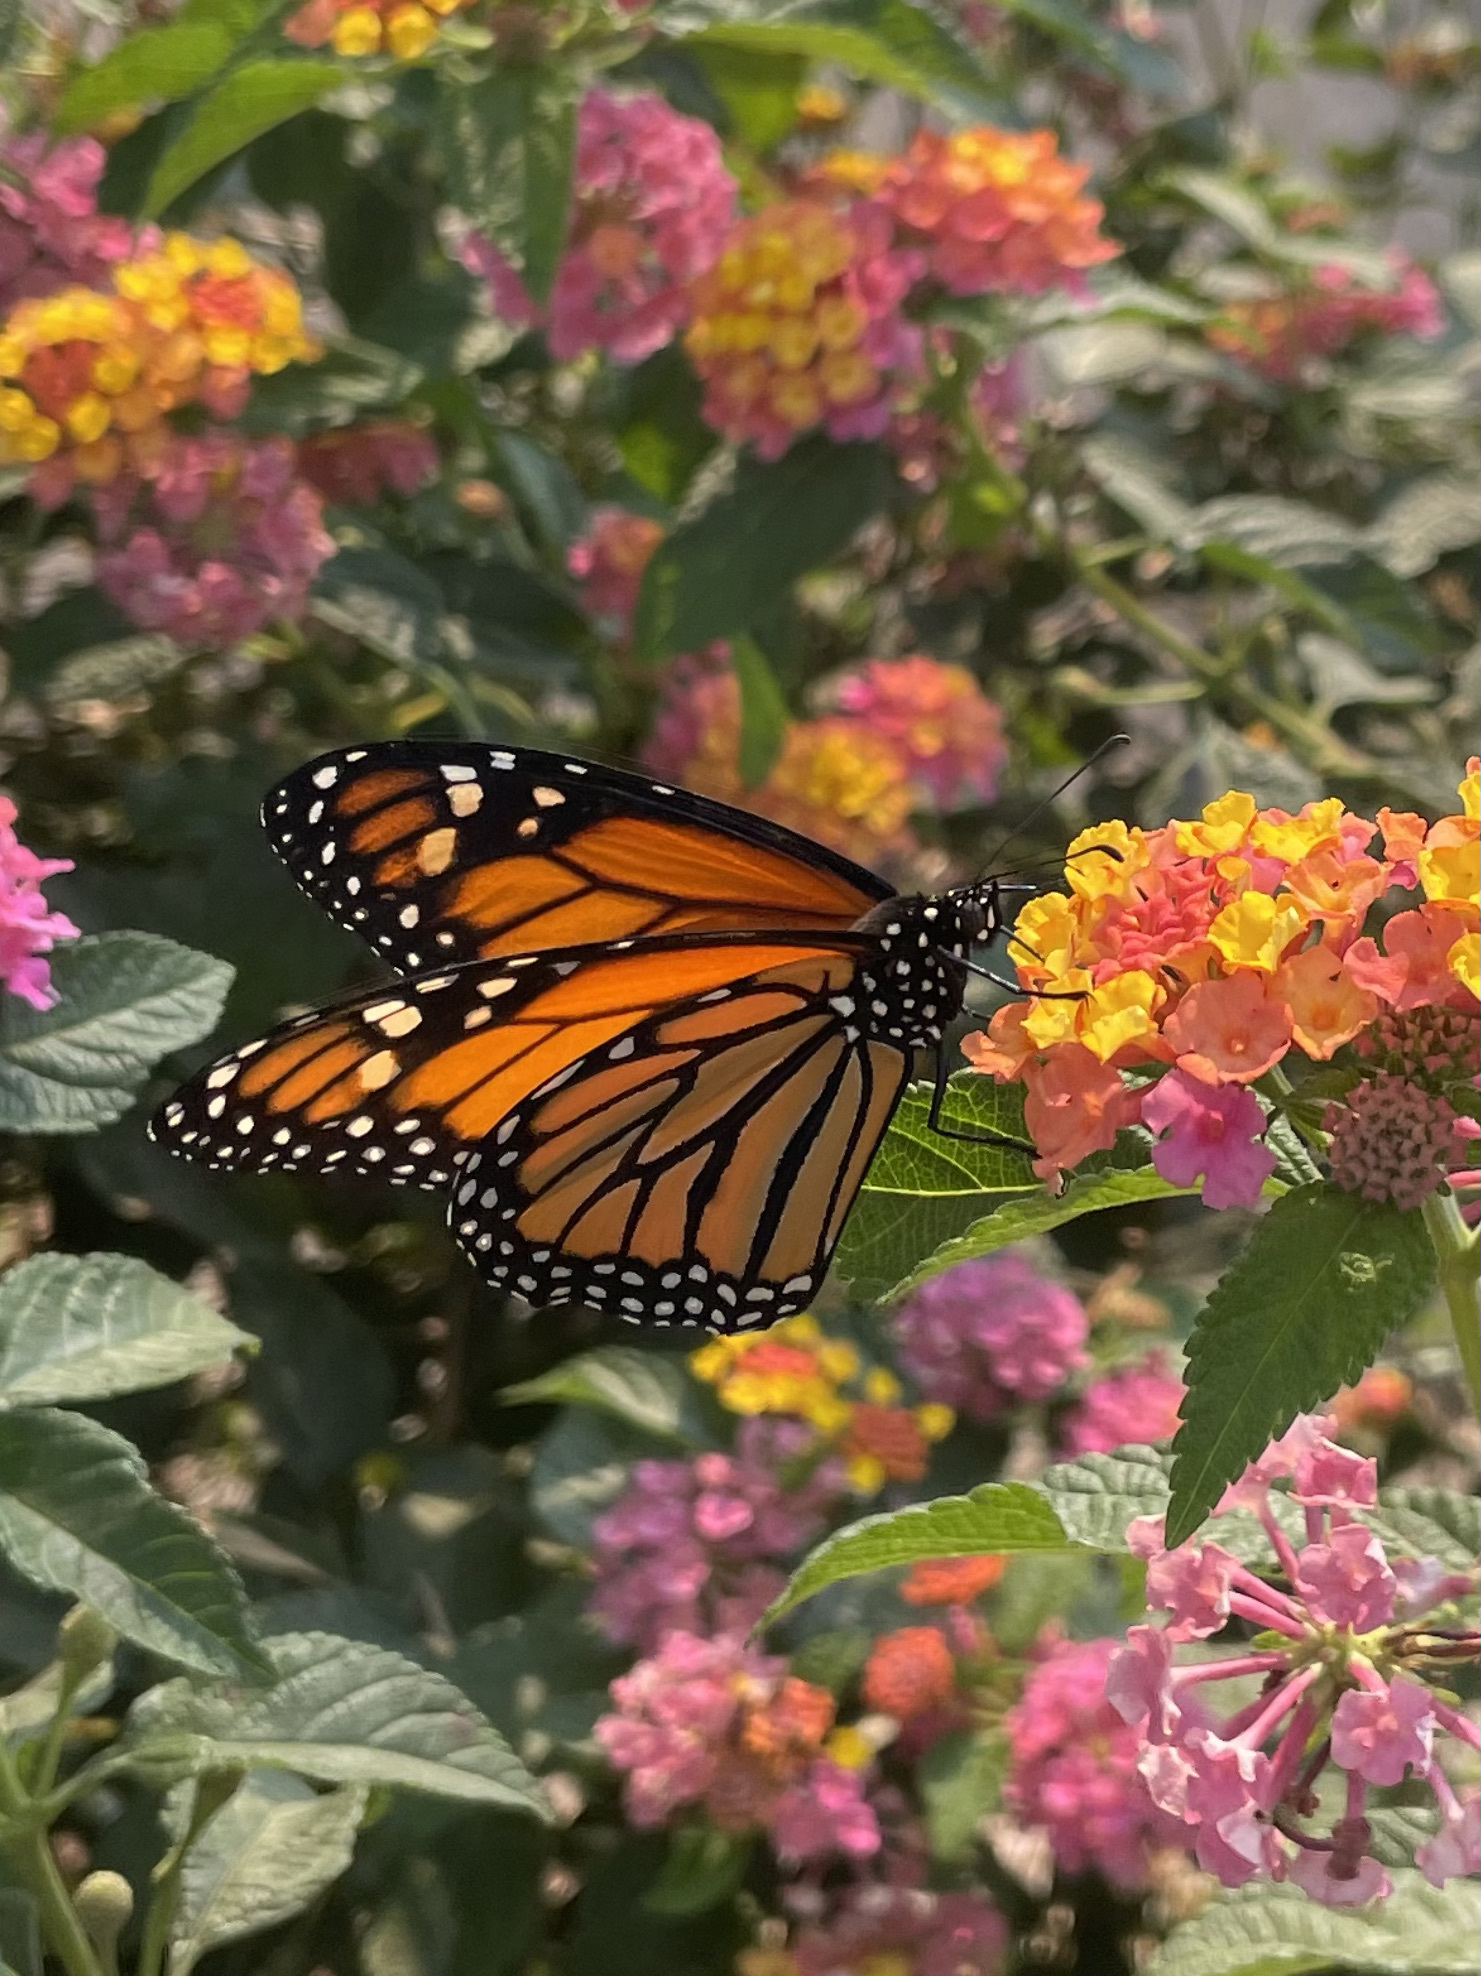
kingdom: Animalia
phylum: Arthropoda
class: Insecta
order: Lepidoptera
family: Nymphalidae
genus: Danaus
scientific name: Danaus plexippus
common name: Monarch
